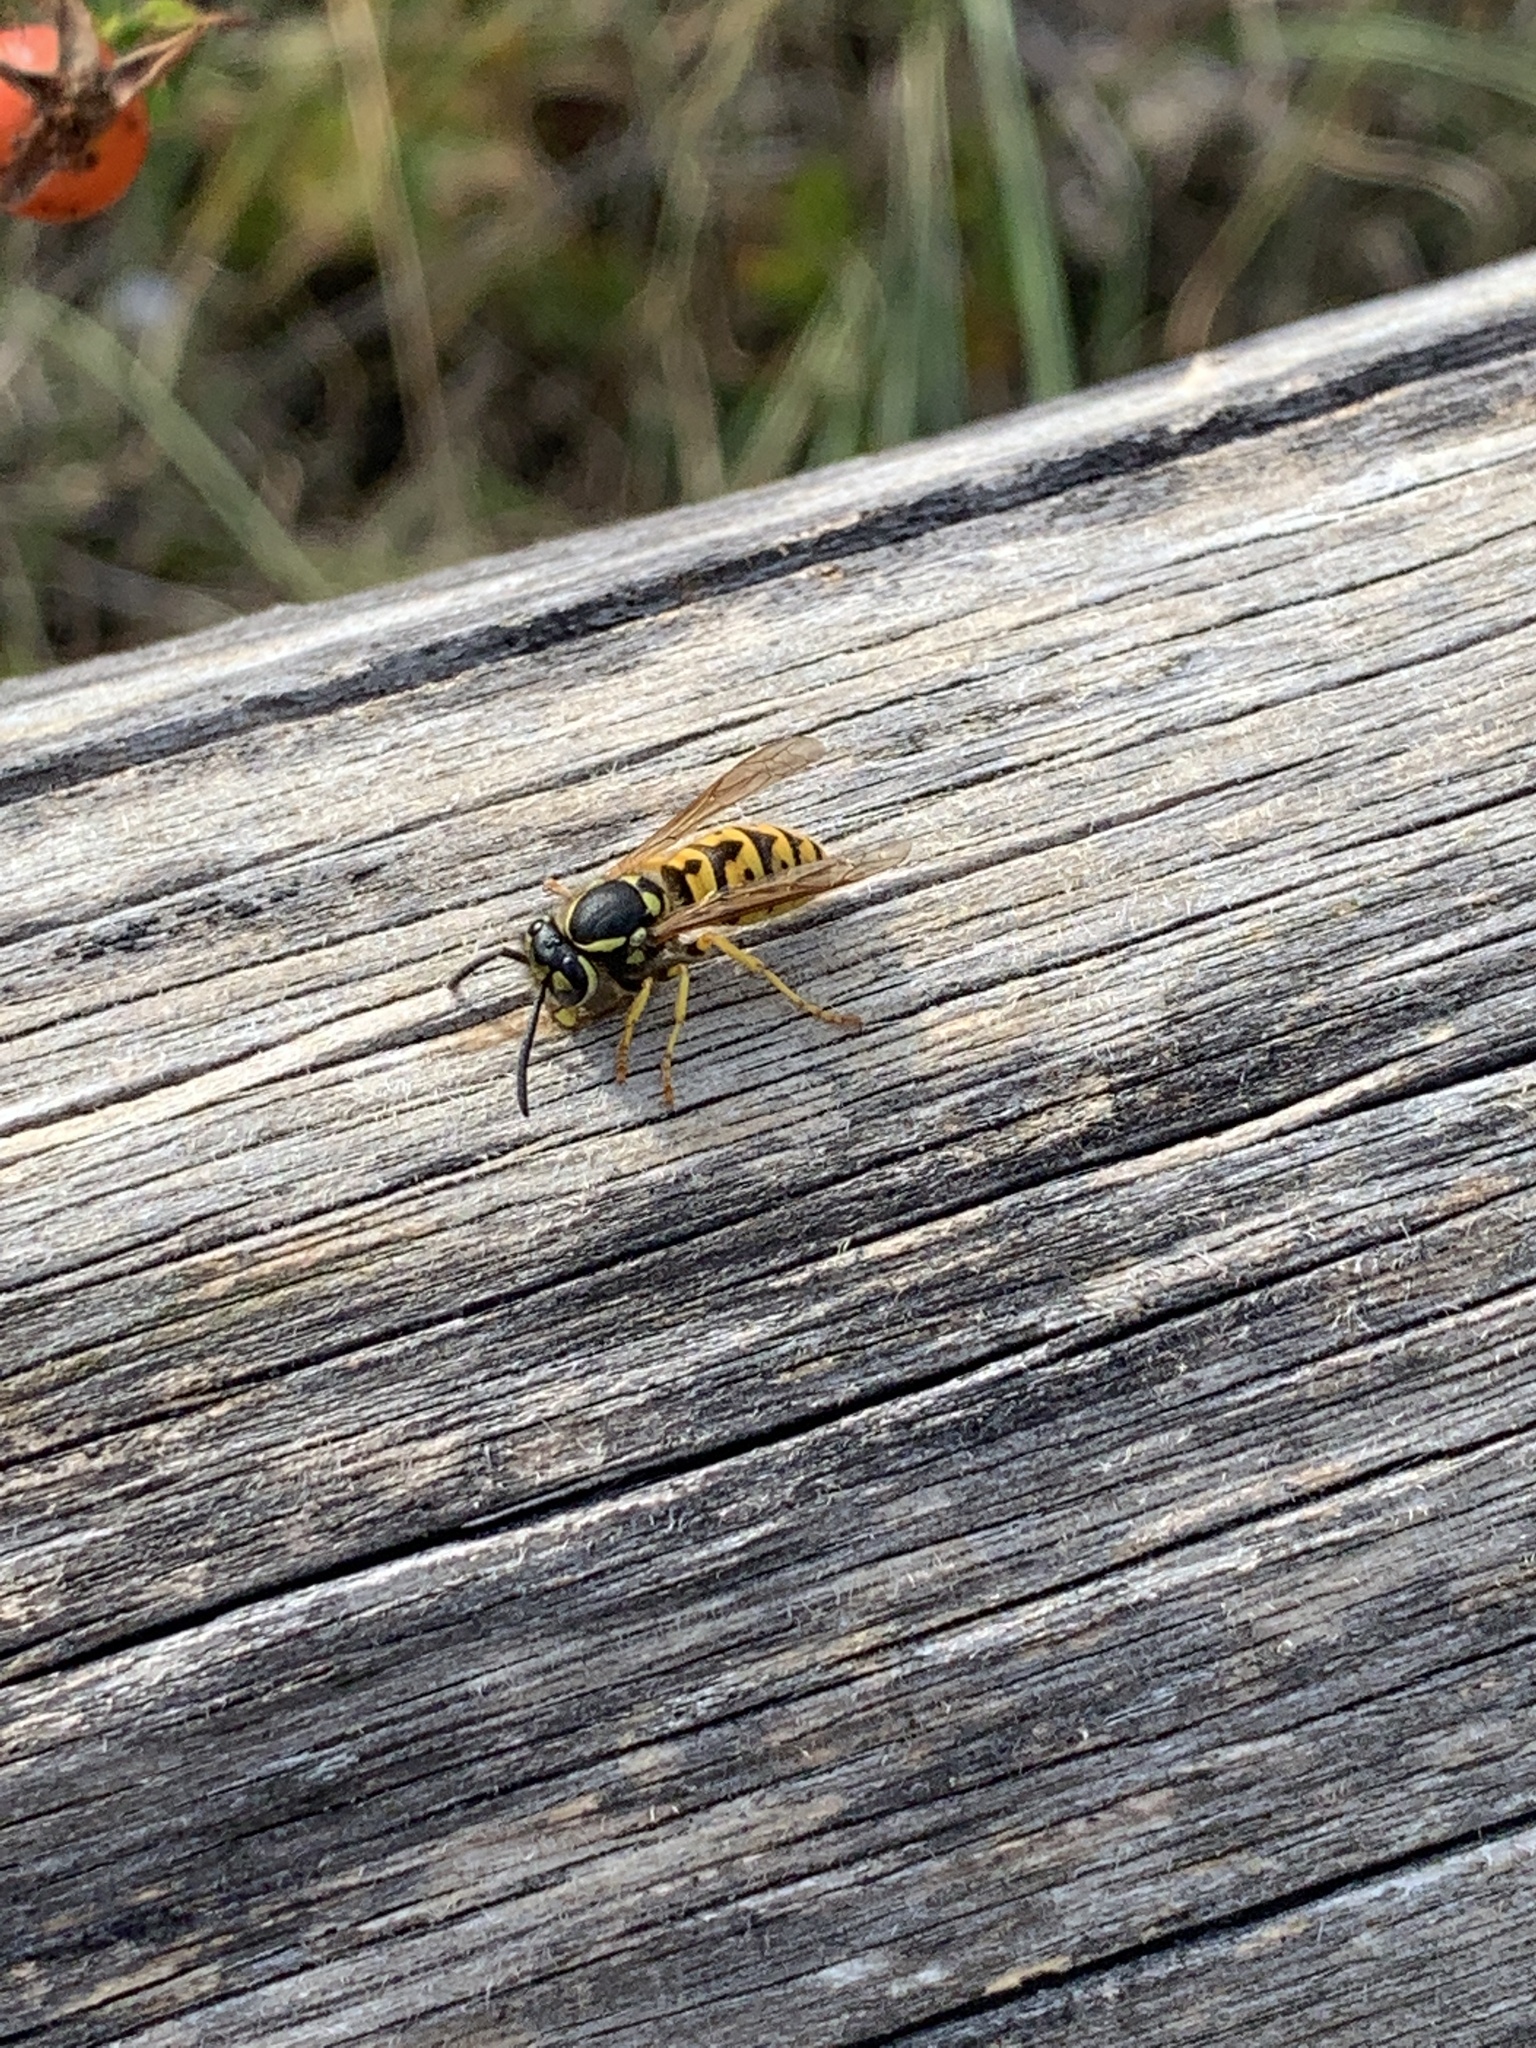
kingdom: Animalia
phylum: Arthropoda
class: Insecta
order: Hymenoptera
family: Vespidae
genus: Vespula
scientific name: Vespula germanica
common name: German wasp
